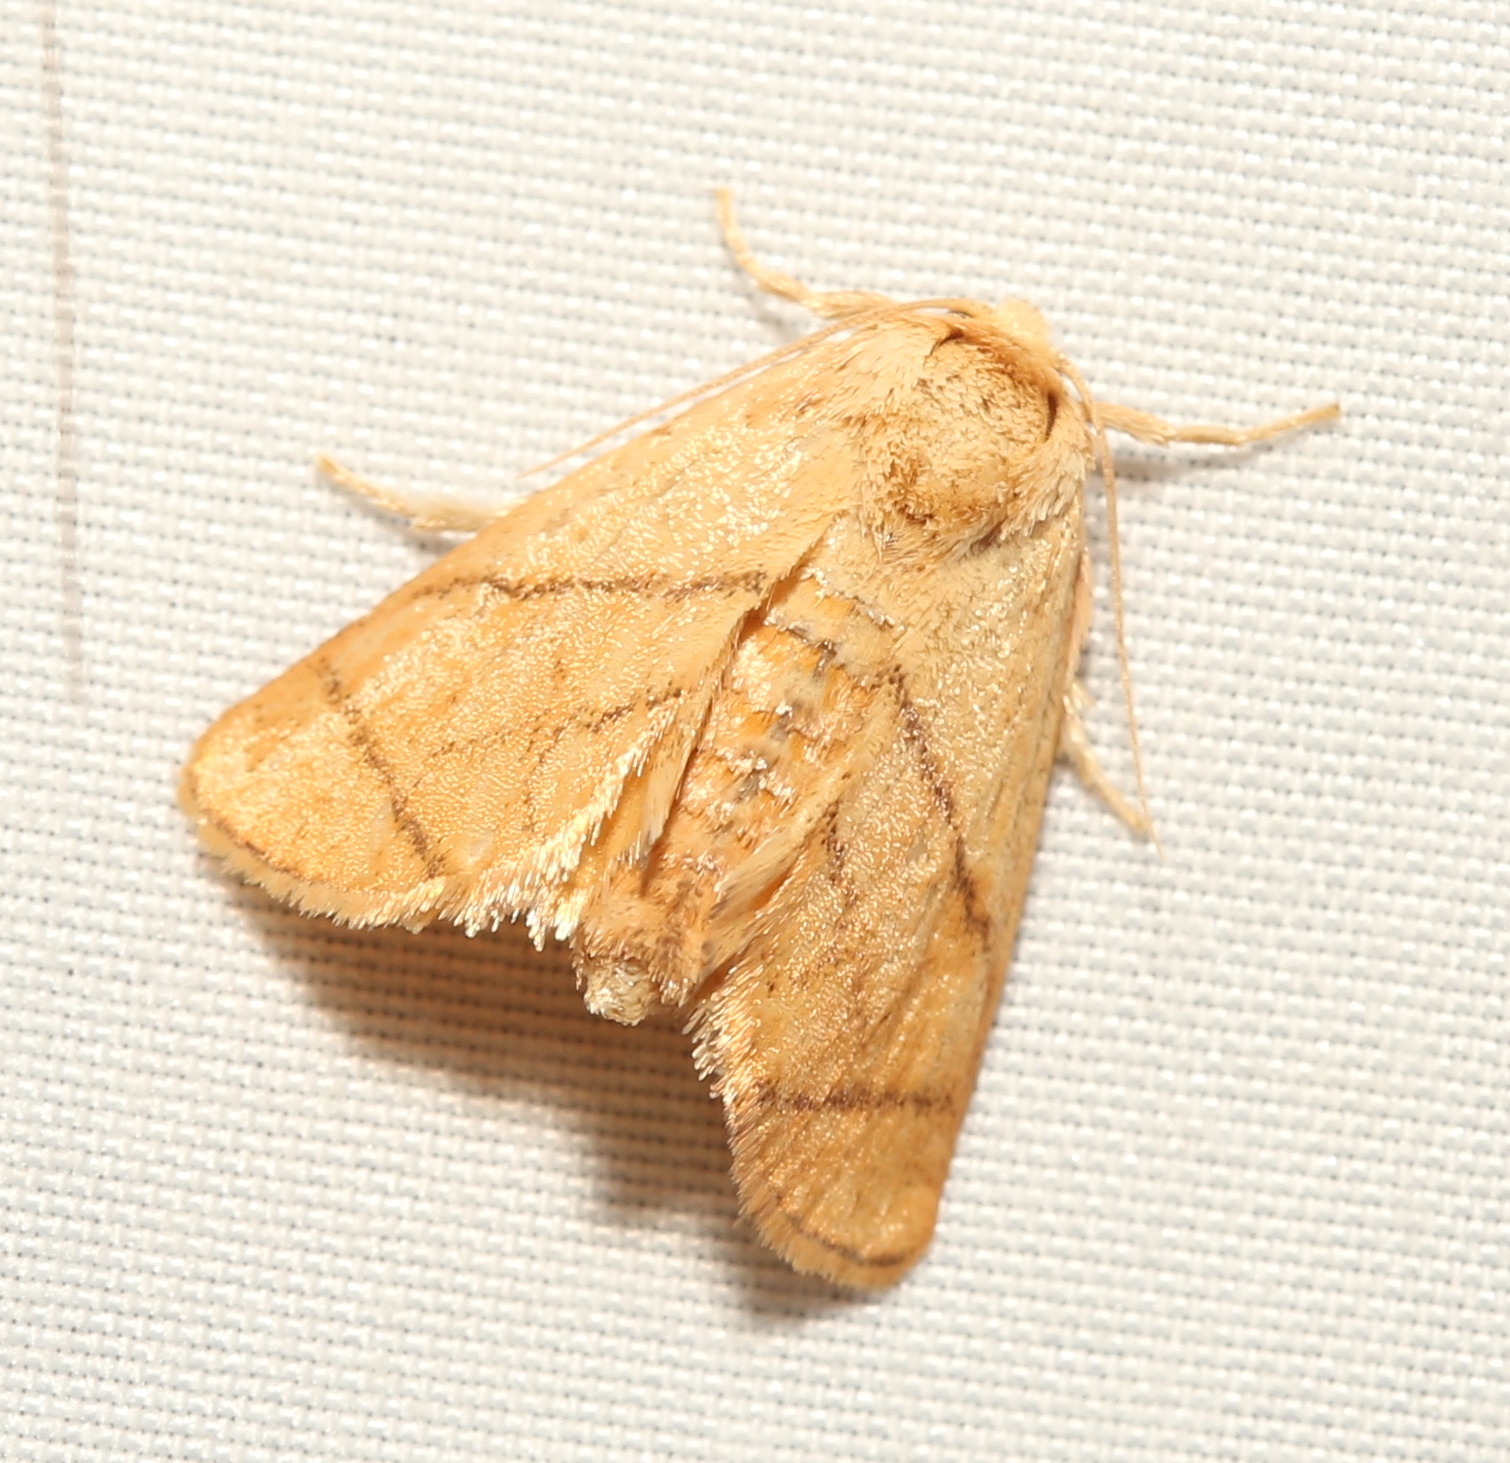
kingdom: Animalia
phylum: Arthropoda
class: Insecta
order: Lepidoptera
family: Limacodidae
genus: Apoda
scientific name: Apoda y-inversa
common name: Yellow-collared slug moth
